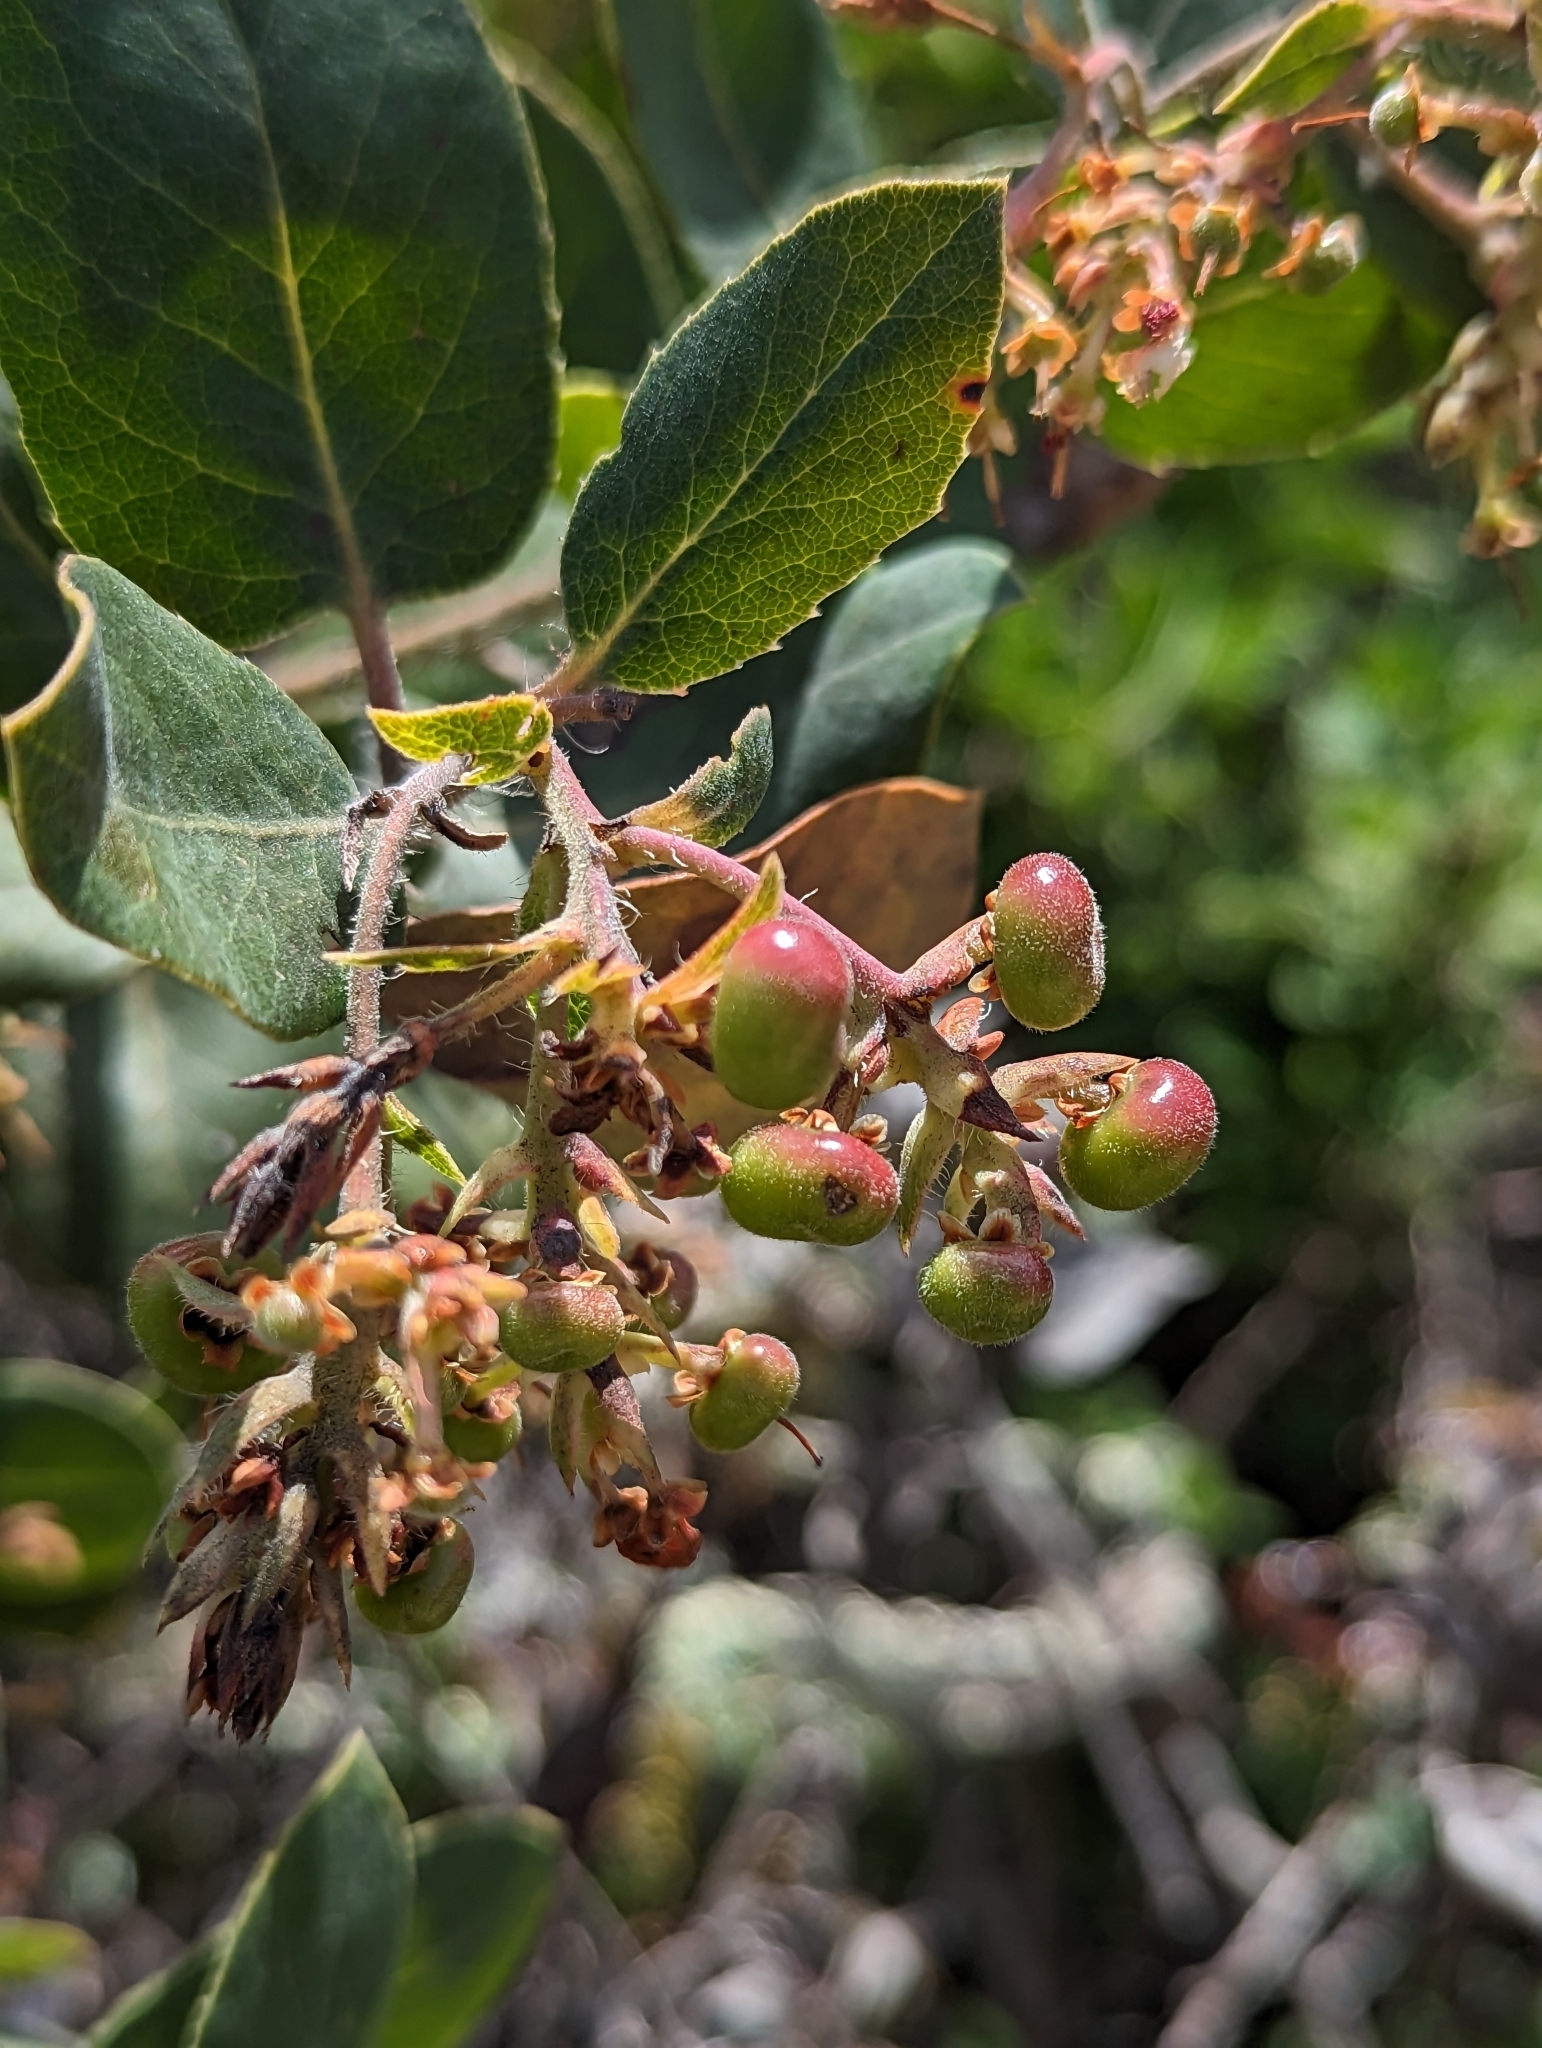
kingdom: Plantae
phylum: Tracheophyta
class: Magnoliopsida
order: Ericales
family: Ericaceae
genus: Arctostaphylos
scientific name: Arctostaphylos crustacea
